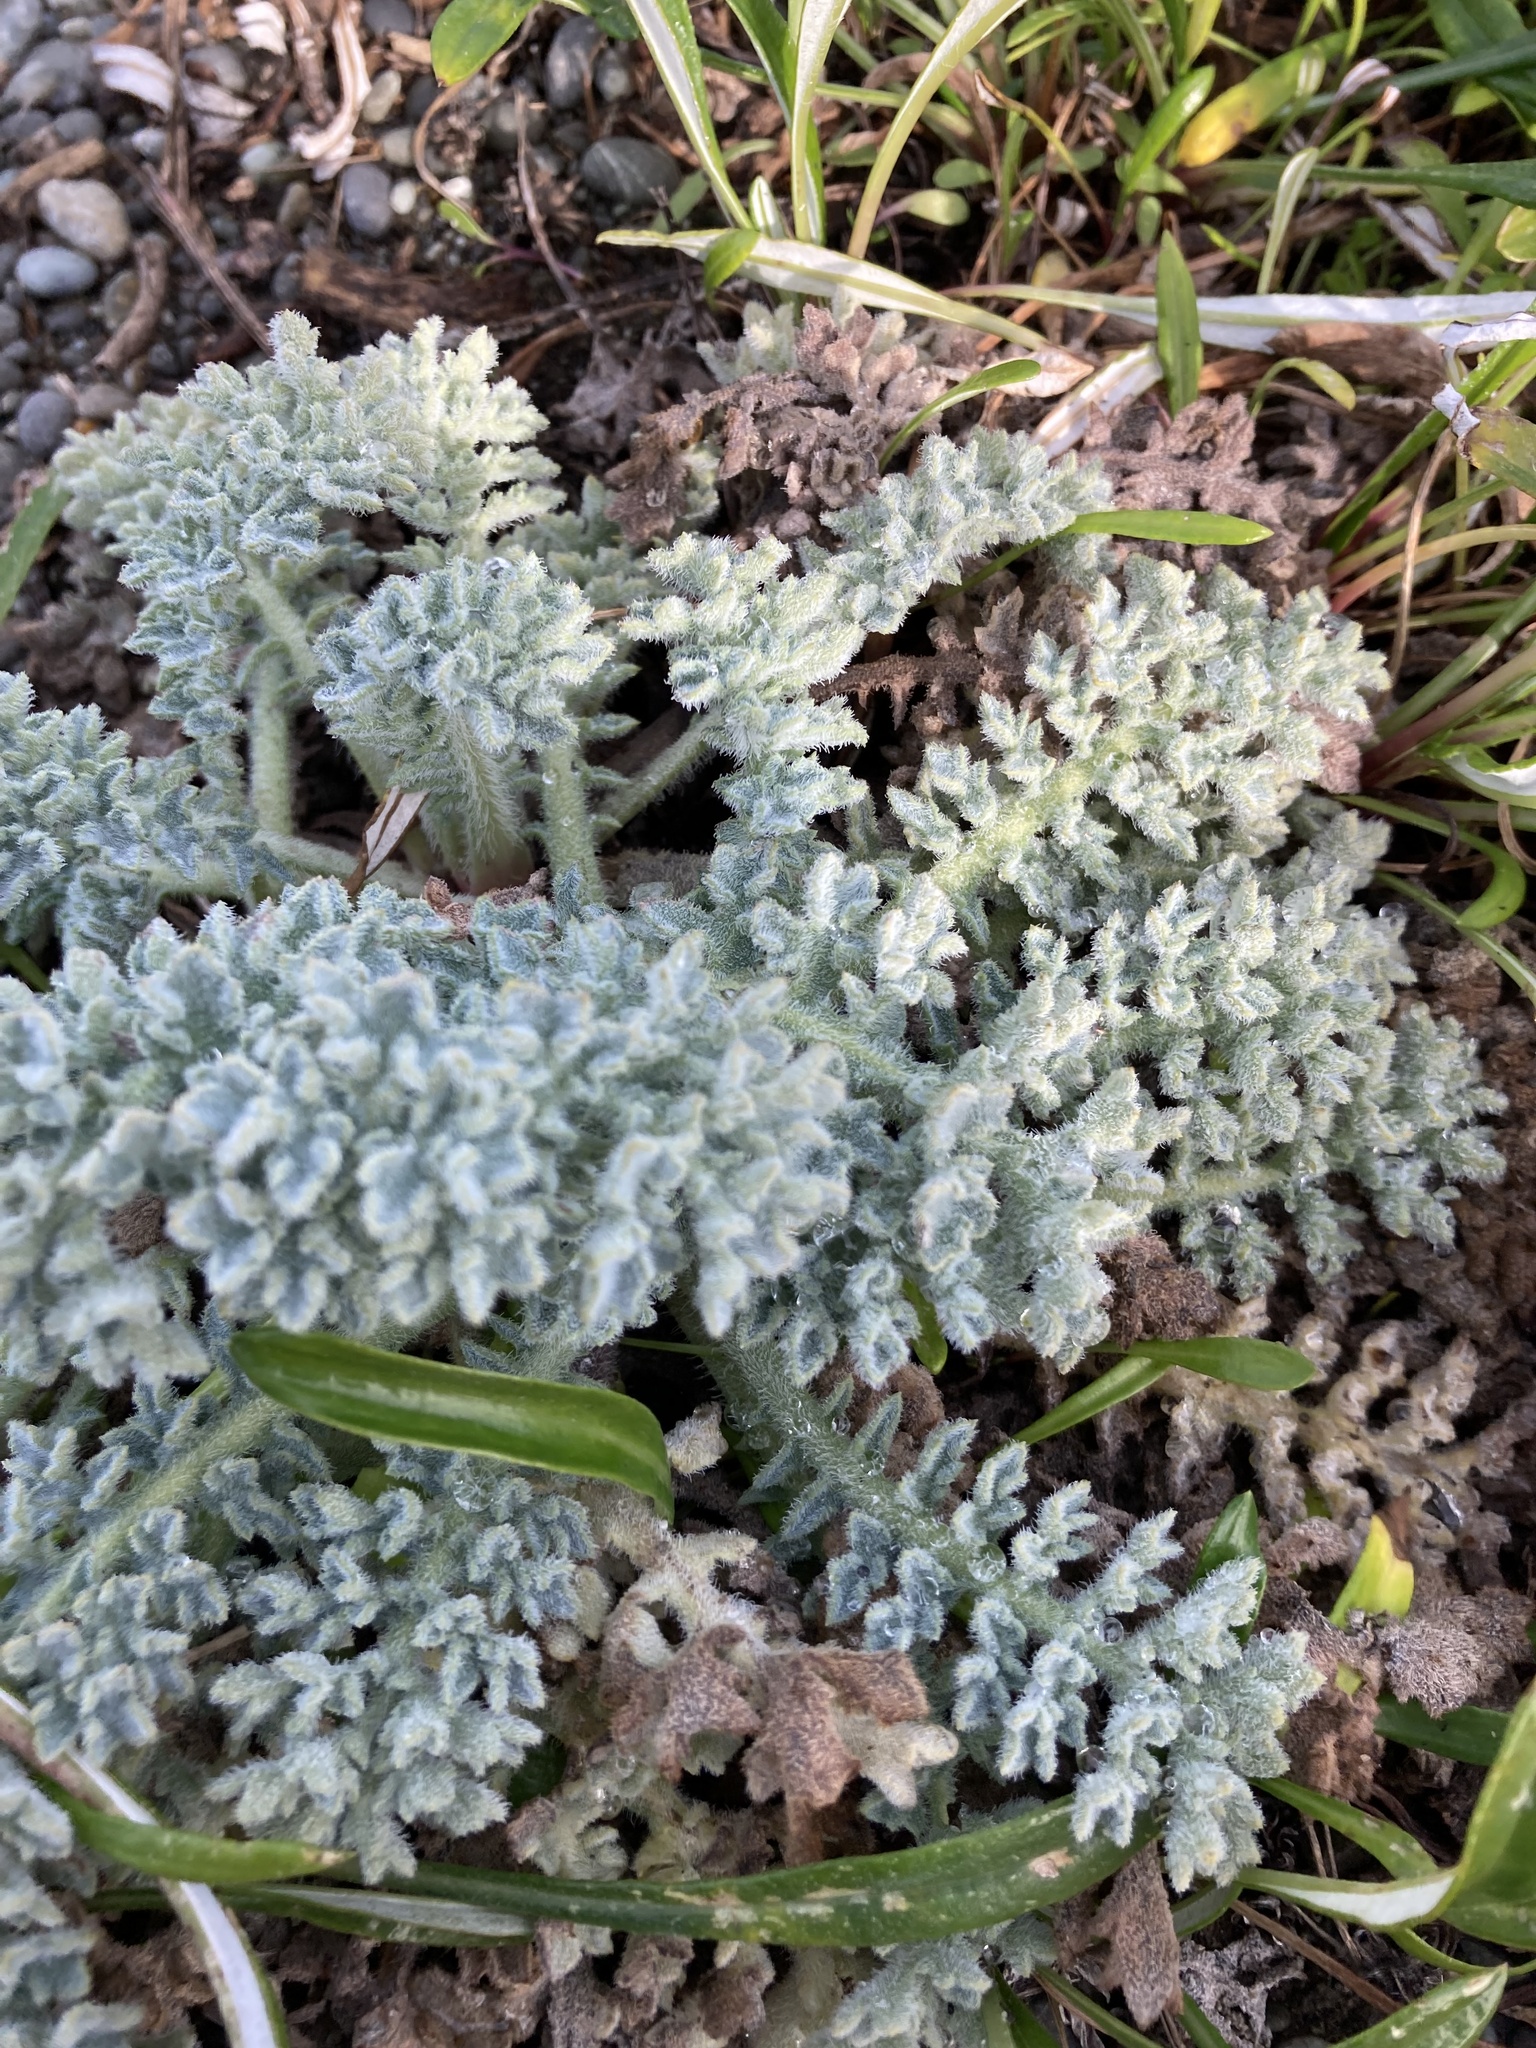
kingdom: Plantae
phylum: Tracheophyta
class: Magnoliopsida
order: Ranunculales
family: Papaveraceae
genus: Glaucium
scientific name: Glaucium flavum
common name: Yellow horned-poppy
